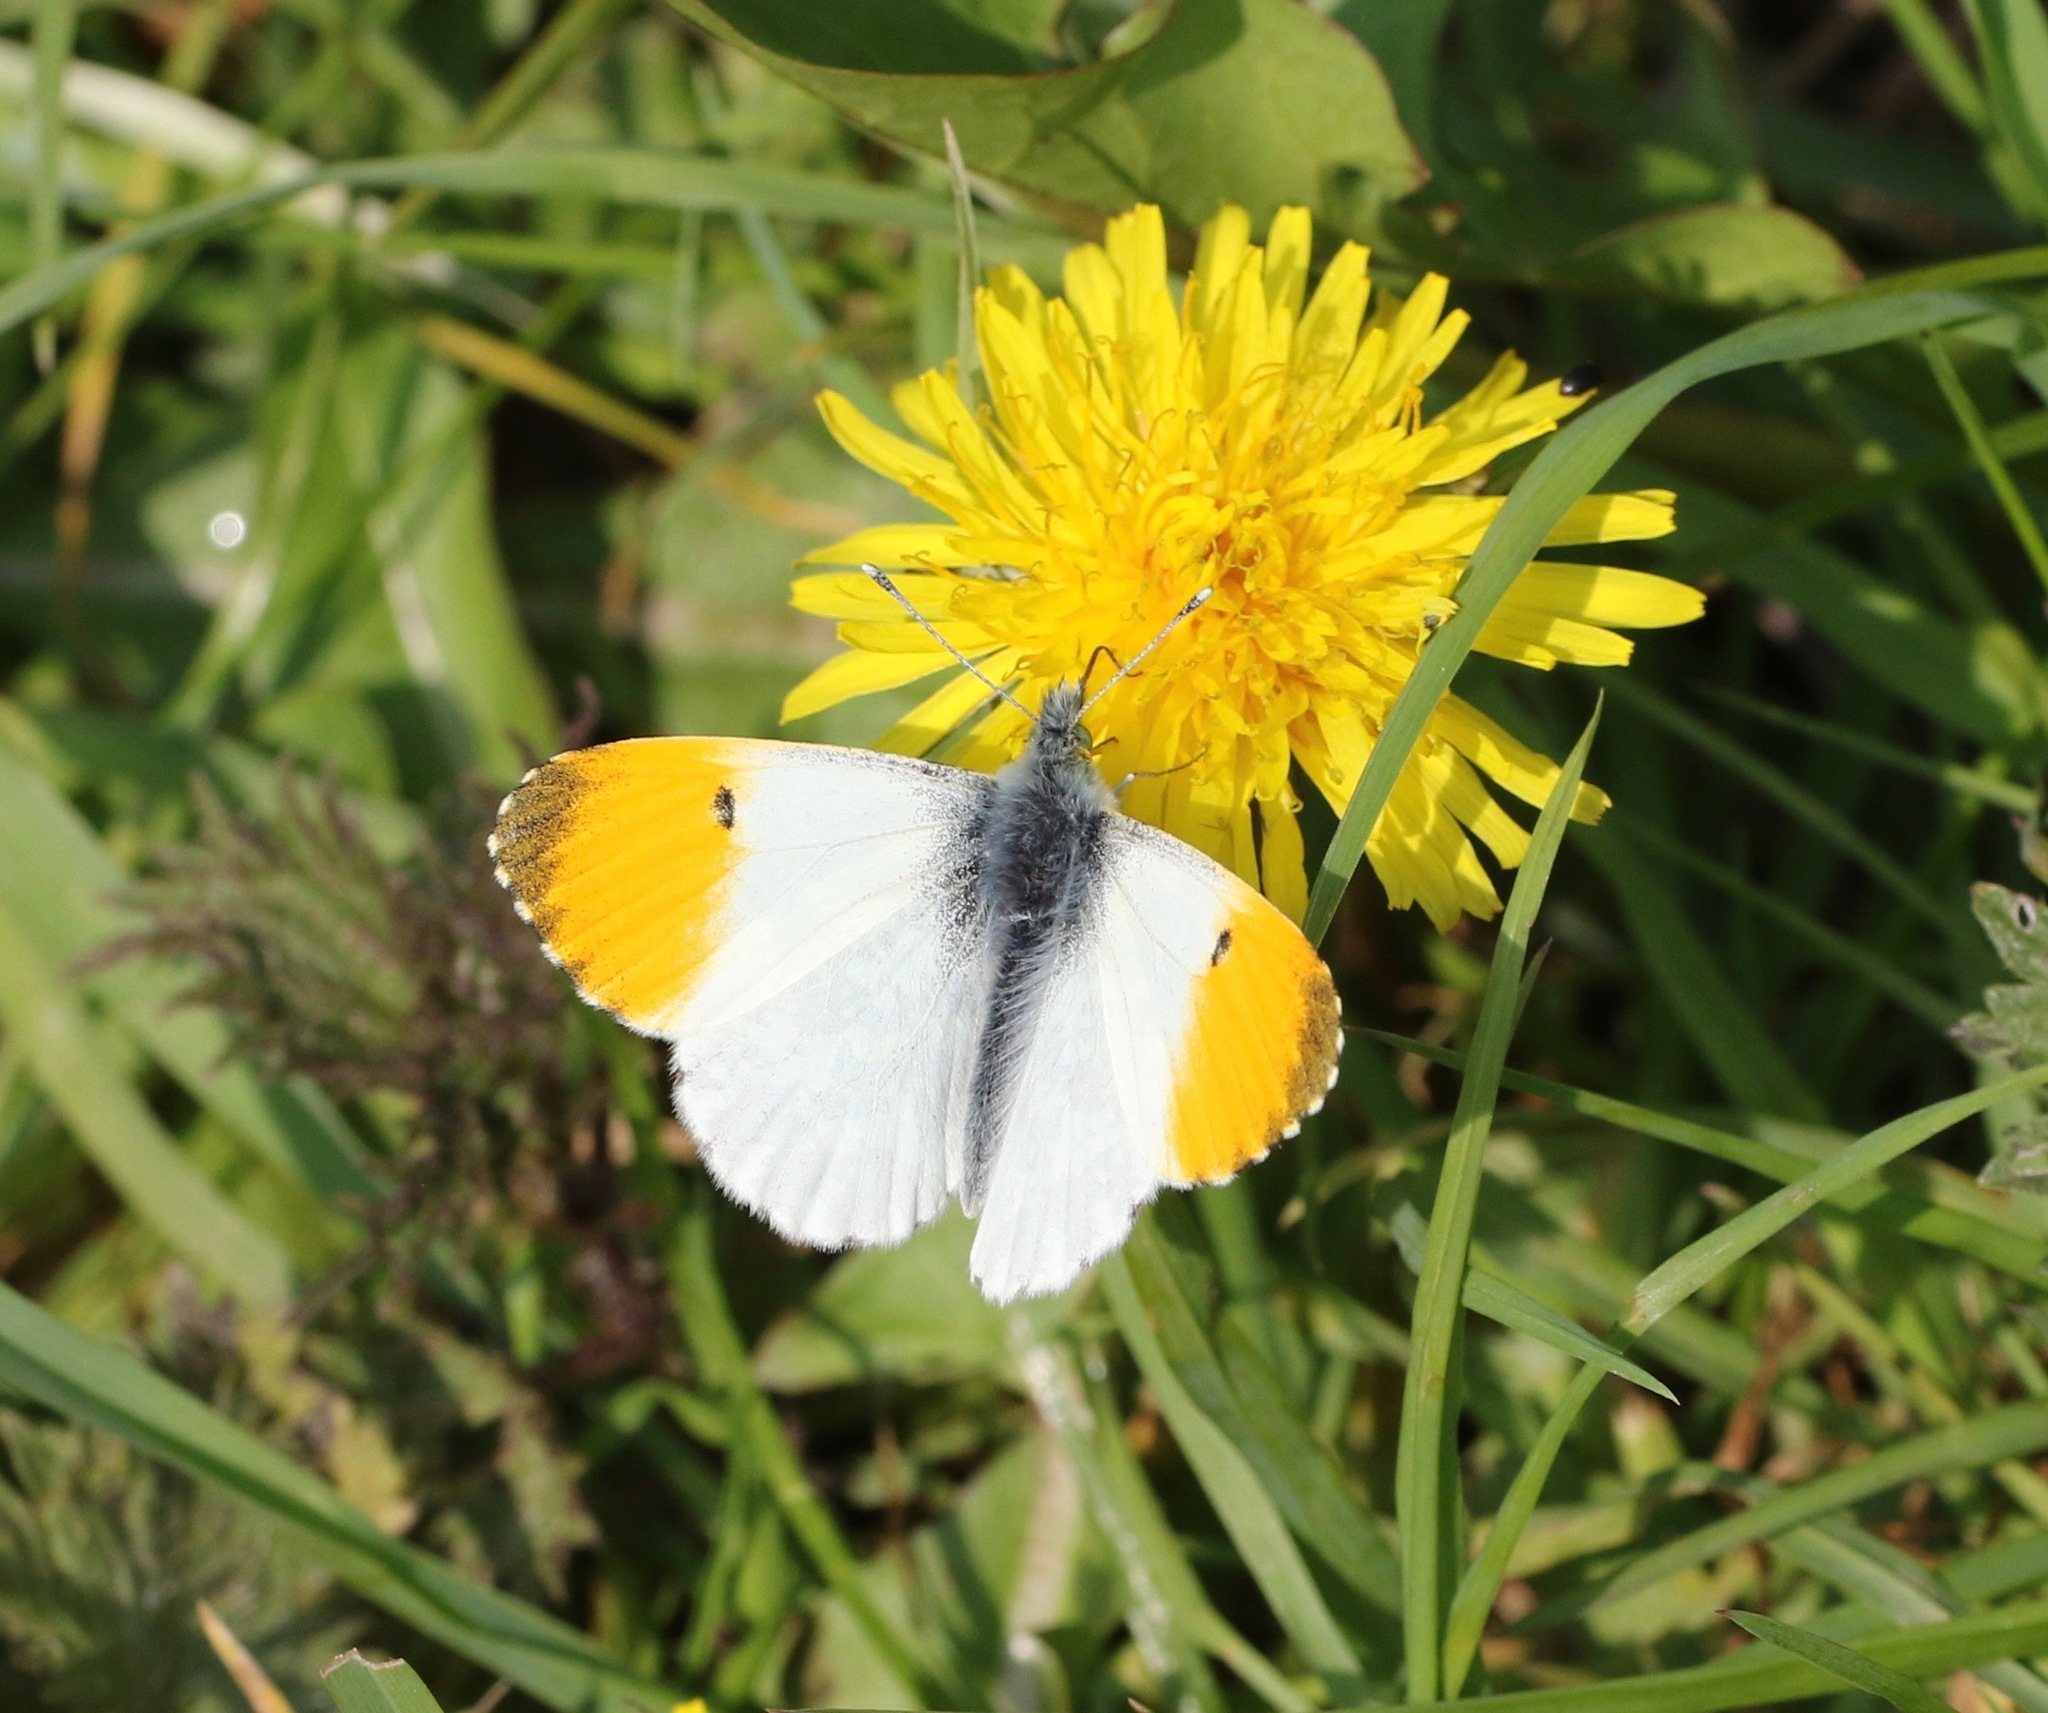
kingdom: Animalia
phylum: Arthropoda
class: Insecta
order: Lepidoptera
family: Pieridae
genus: Anthocharis
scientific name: Anthocharis cardamines
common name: Orange-tip
